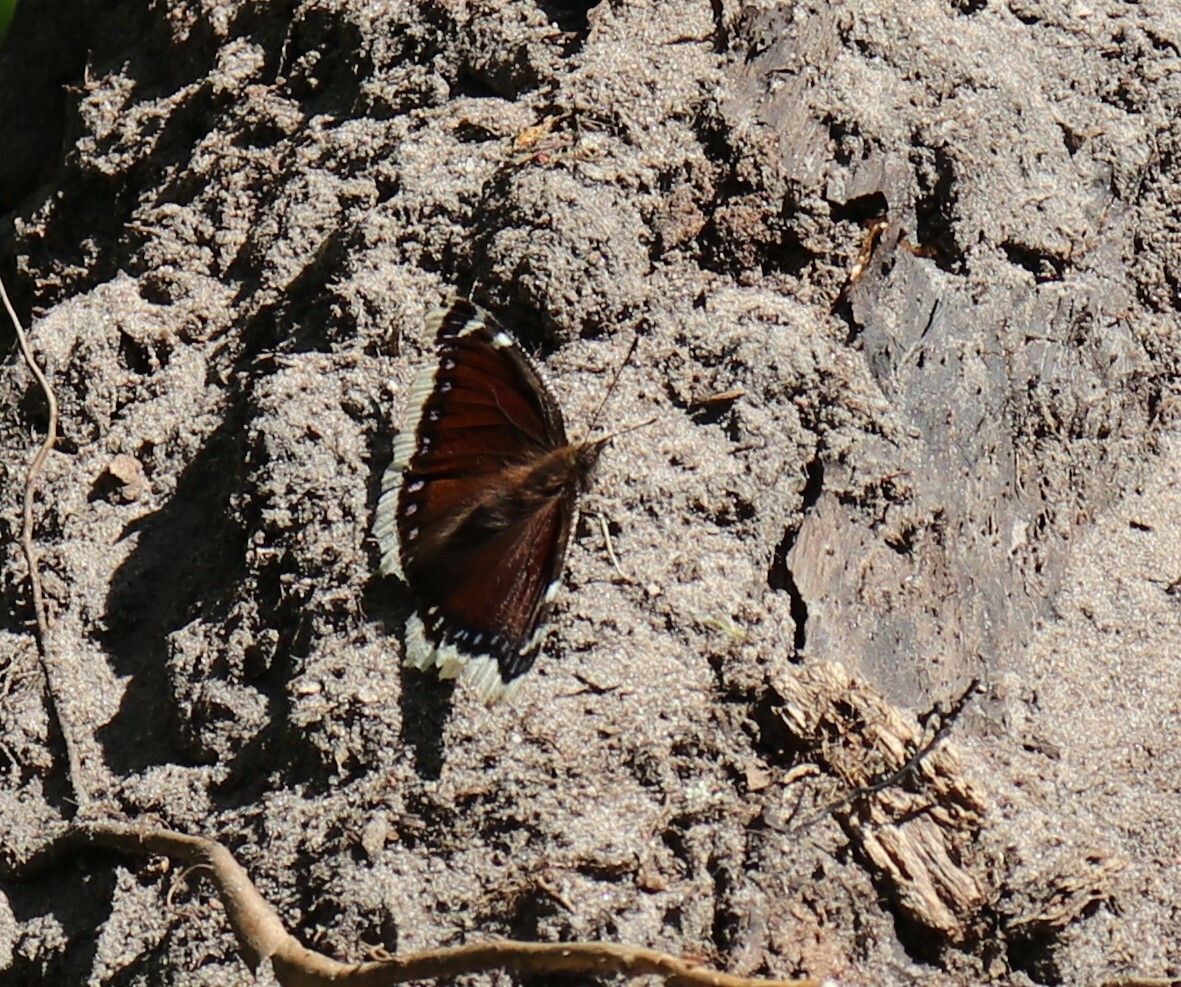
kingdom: Animalia
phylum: Arthropoda
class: Insecta
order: Lepidoptera
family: Nymphalidae
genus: Nymphalis
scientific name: Nymphalis antiopa
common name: Camberwell beauty
